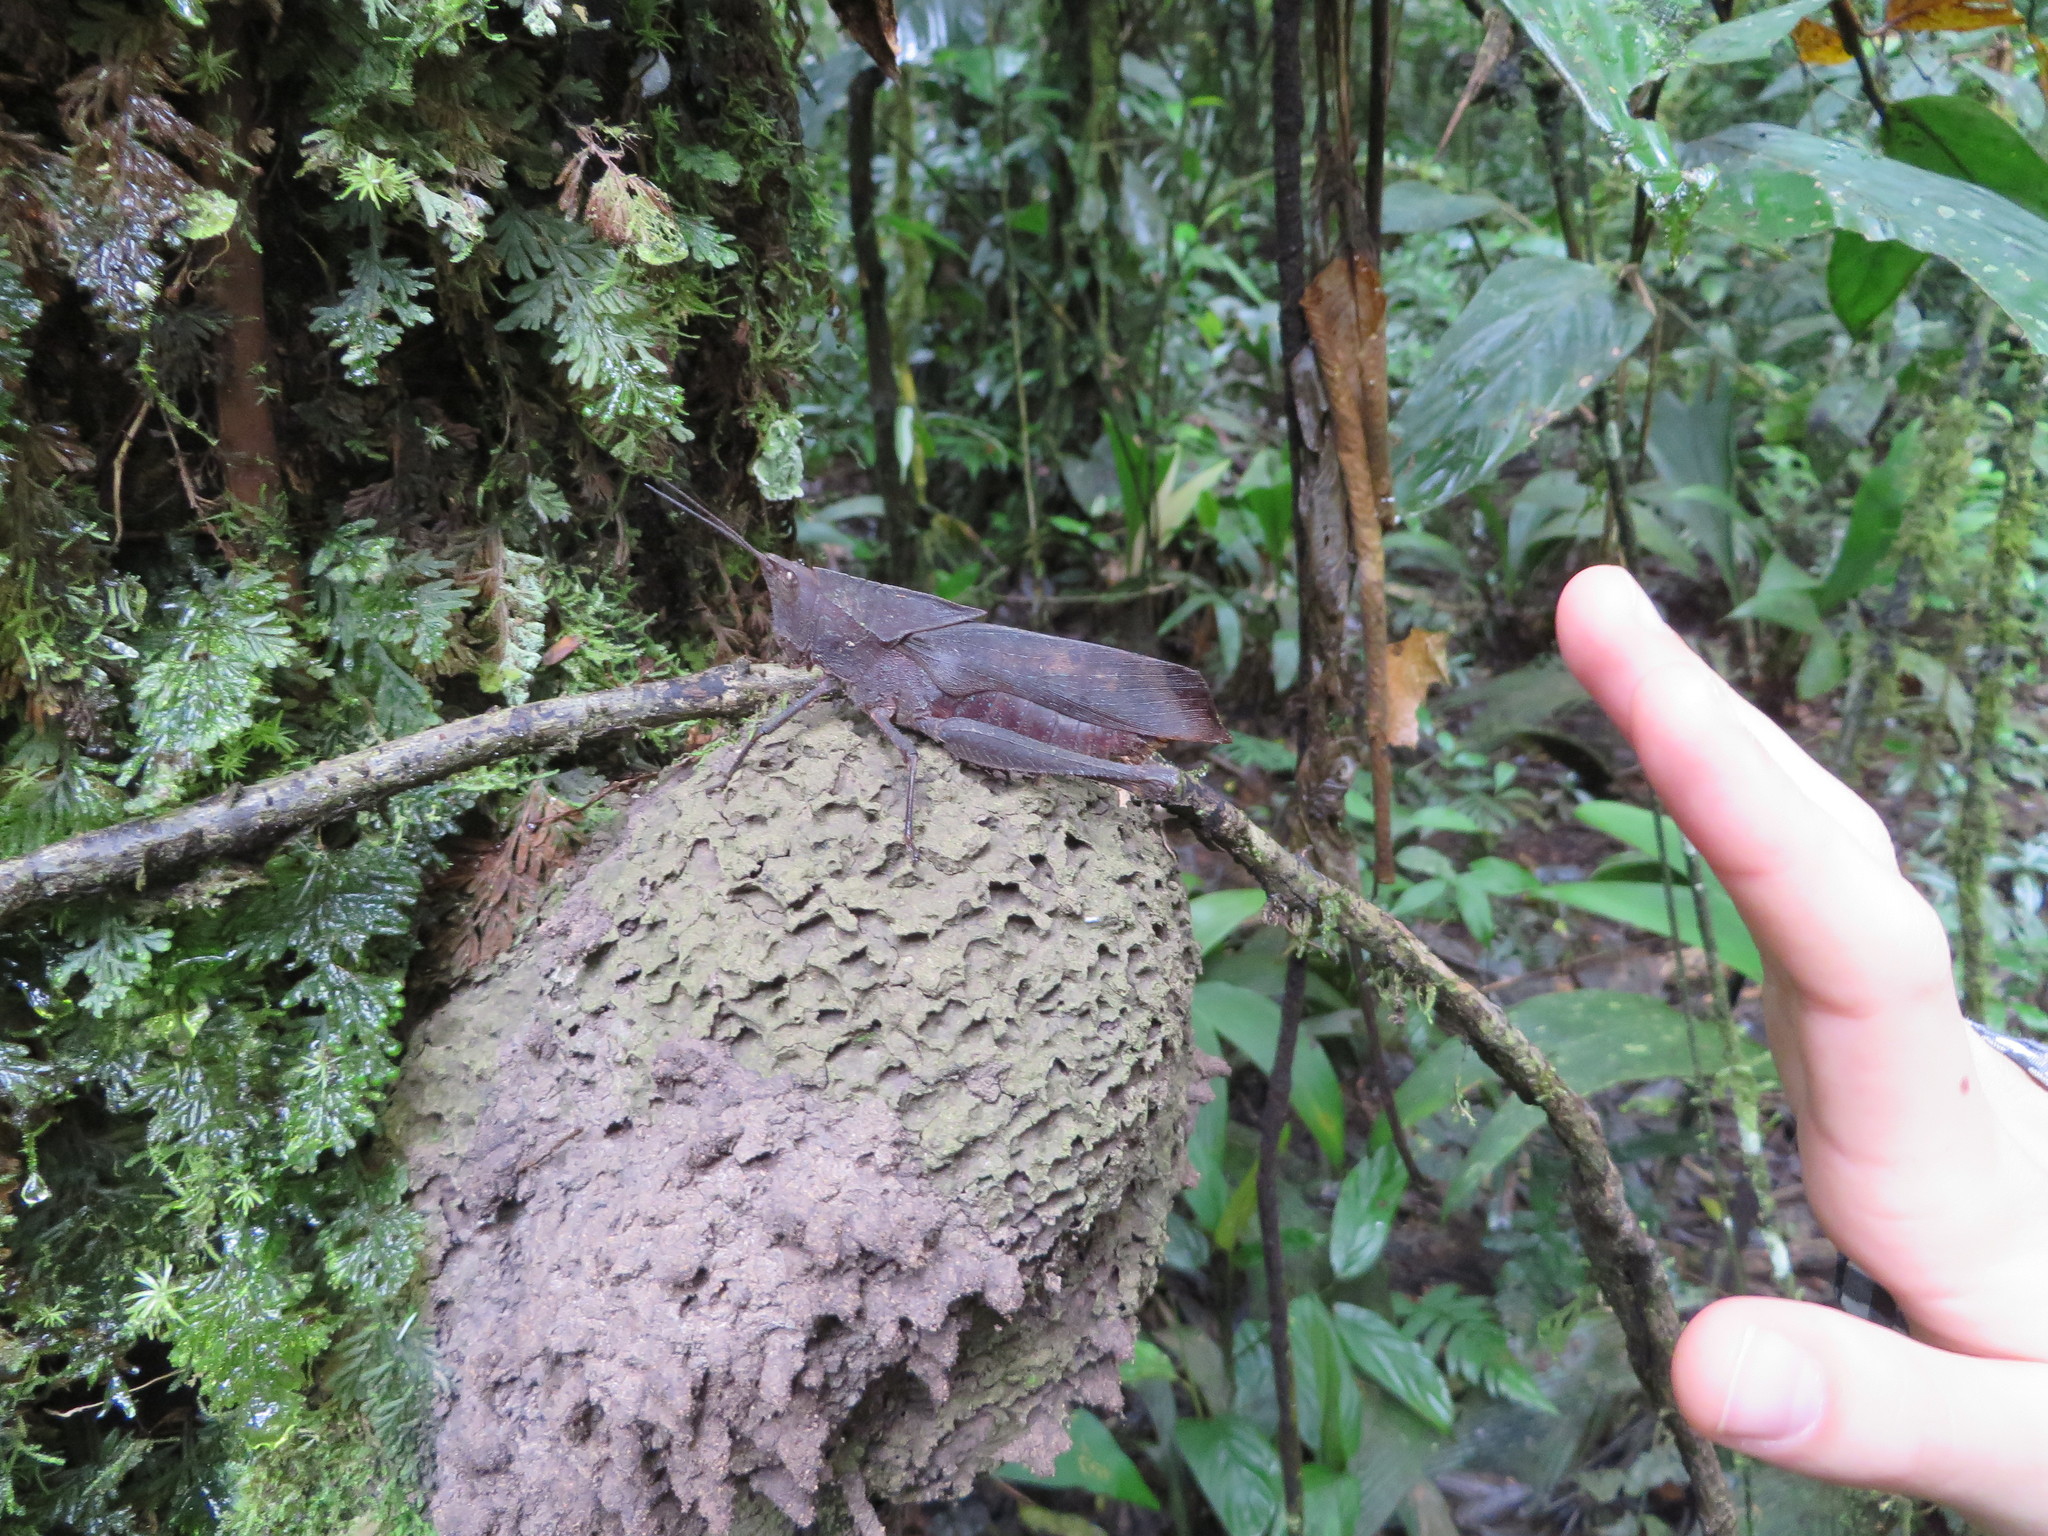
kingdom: Animalia
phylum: Arthropoda
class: Insecta
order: Orthoptera
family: Romaleidae
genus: Colpolopha
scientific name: Colpolopha latipennis
